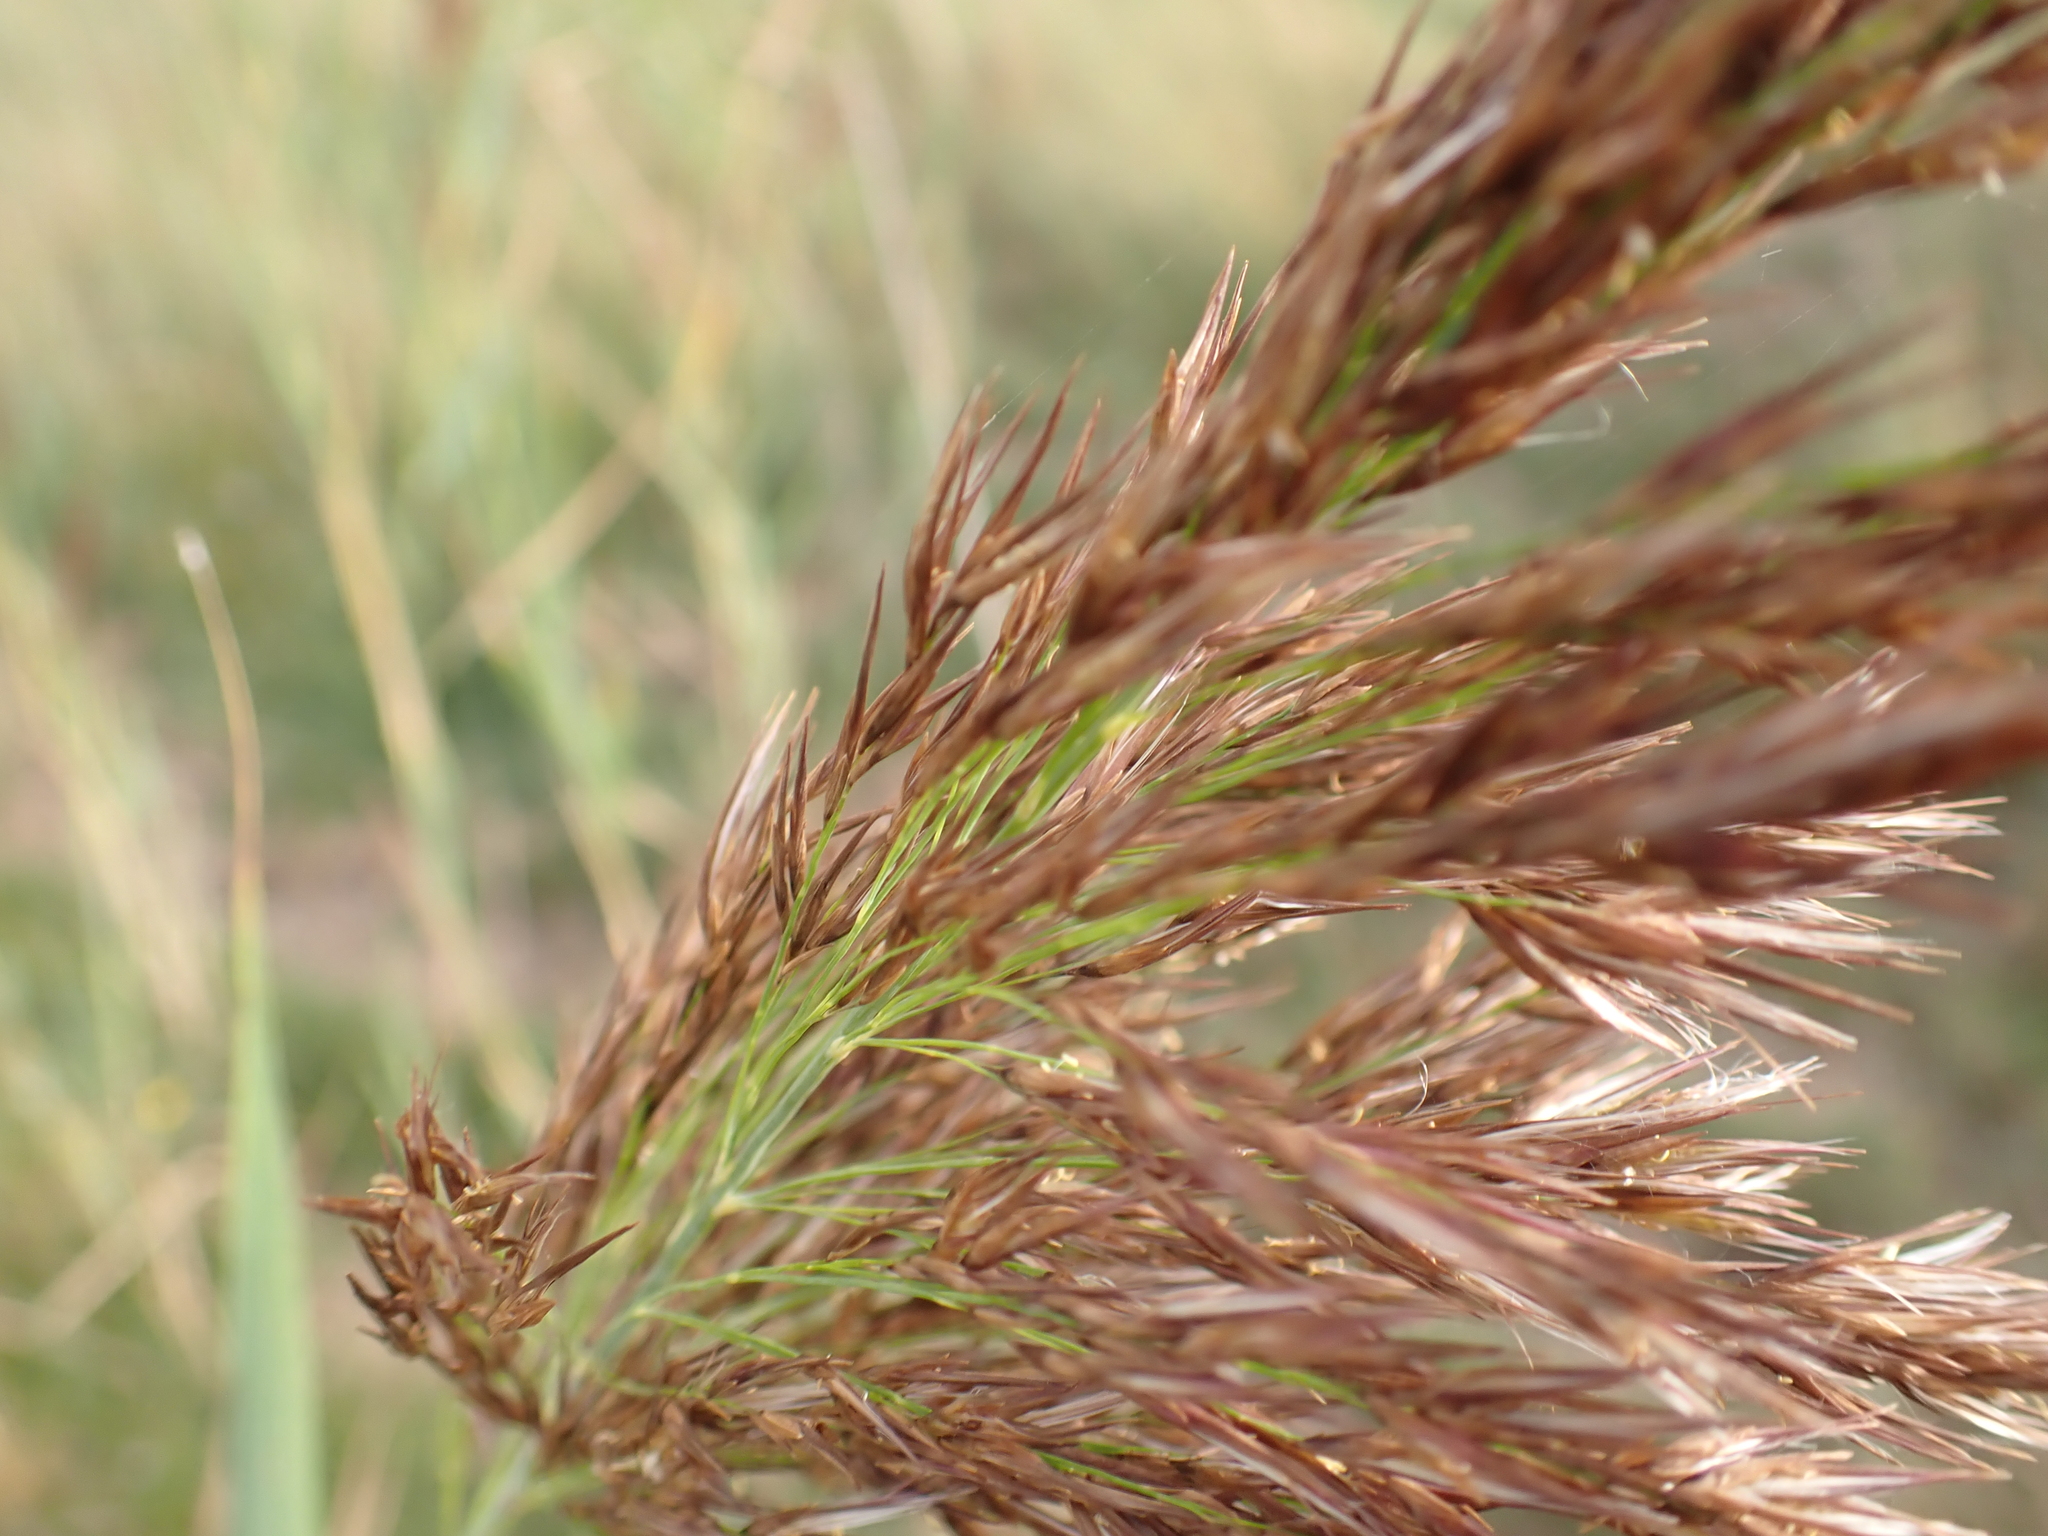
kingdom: Plantae
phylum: Tracheophyta
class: Liliopsida
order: Poales
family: Poaceae
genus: Phragmites
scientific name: Phragmites australis
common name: Common reed
